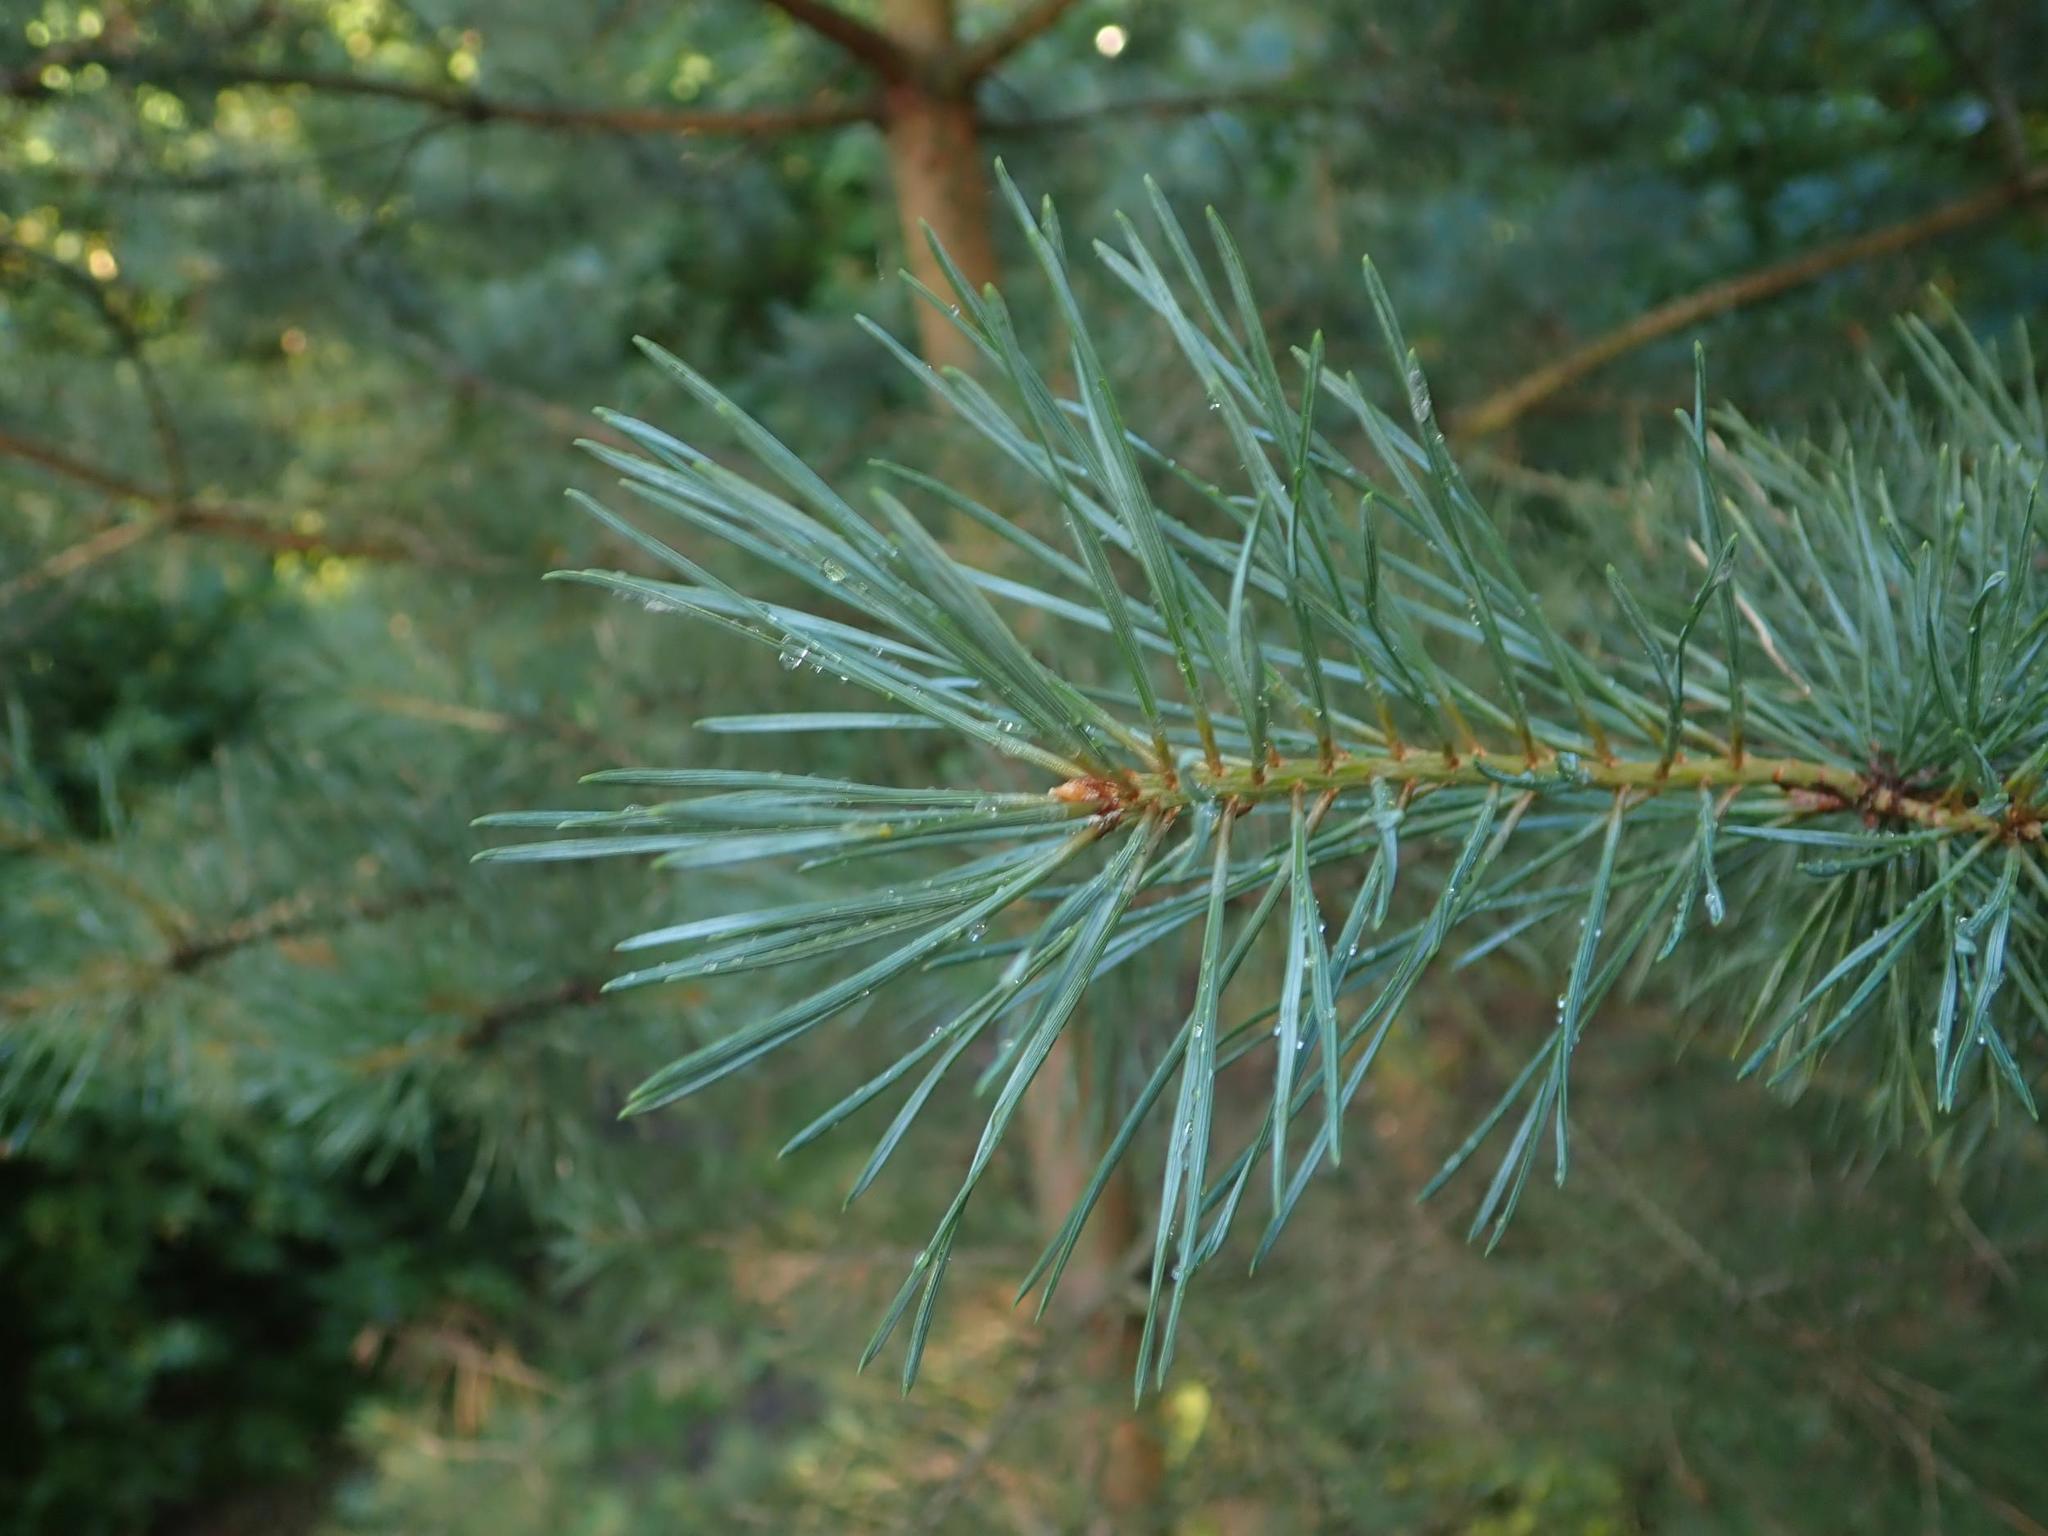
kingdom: Plantae
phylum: Tracheophyta
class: Pinopsida
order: Pinales
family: Pinaceae
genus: Pinus
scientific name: Pinus sylvestris
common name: Scots pine
